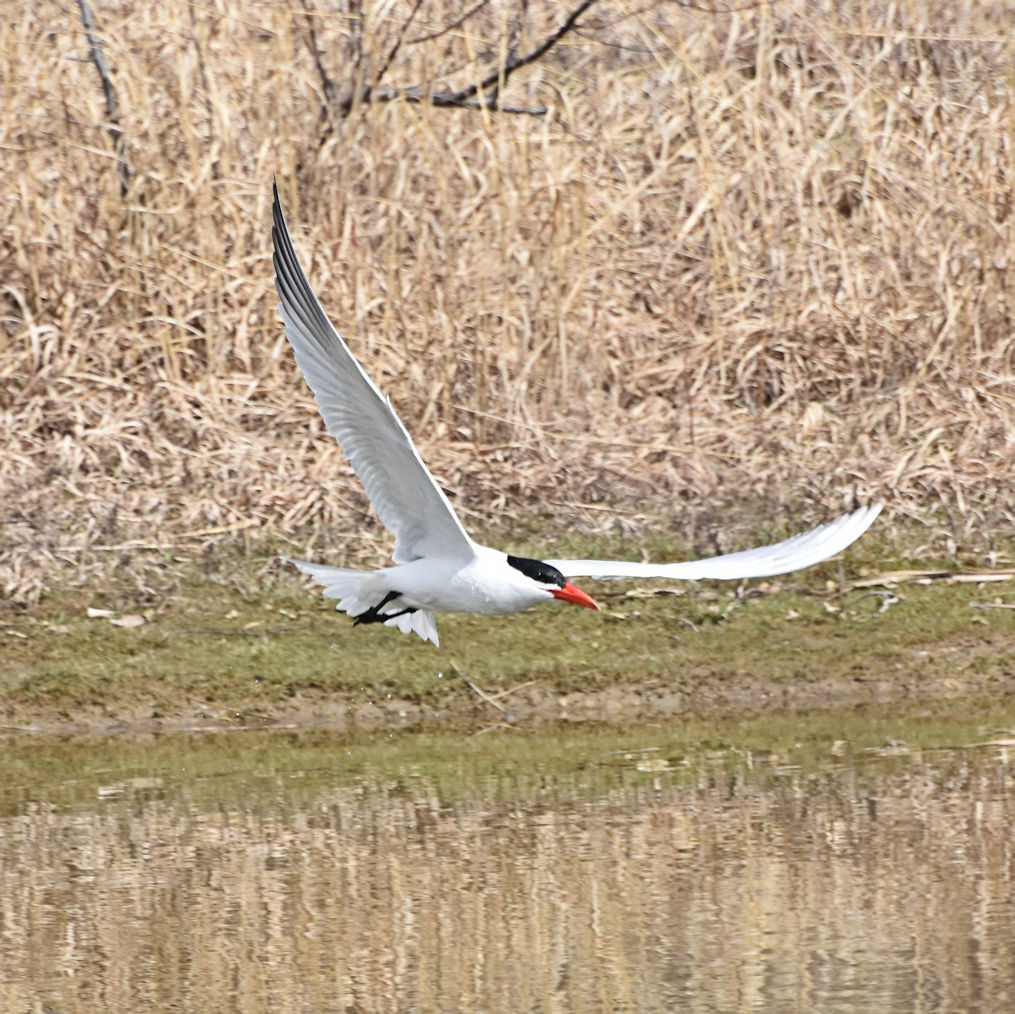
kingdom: Animalia
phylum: Chordata
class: Aves
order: Charadriiformes
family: Laridae
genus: Hydroprogne
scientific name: Hydroprogne caspia
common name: Caspian tern
